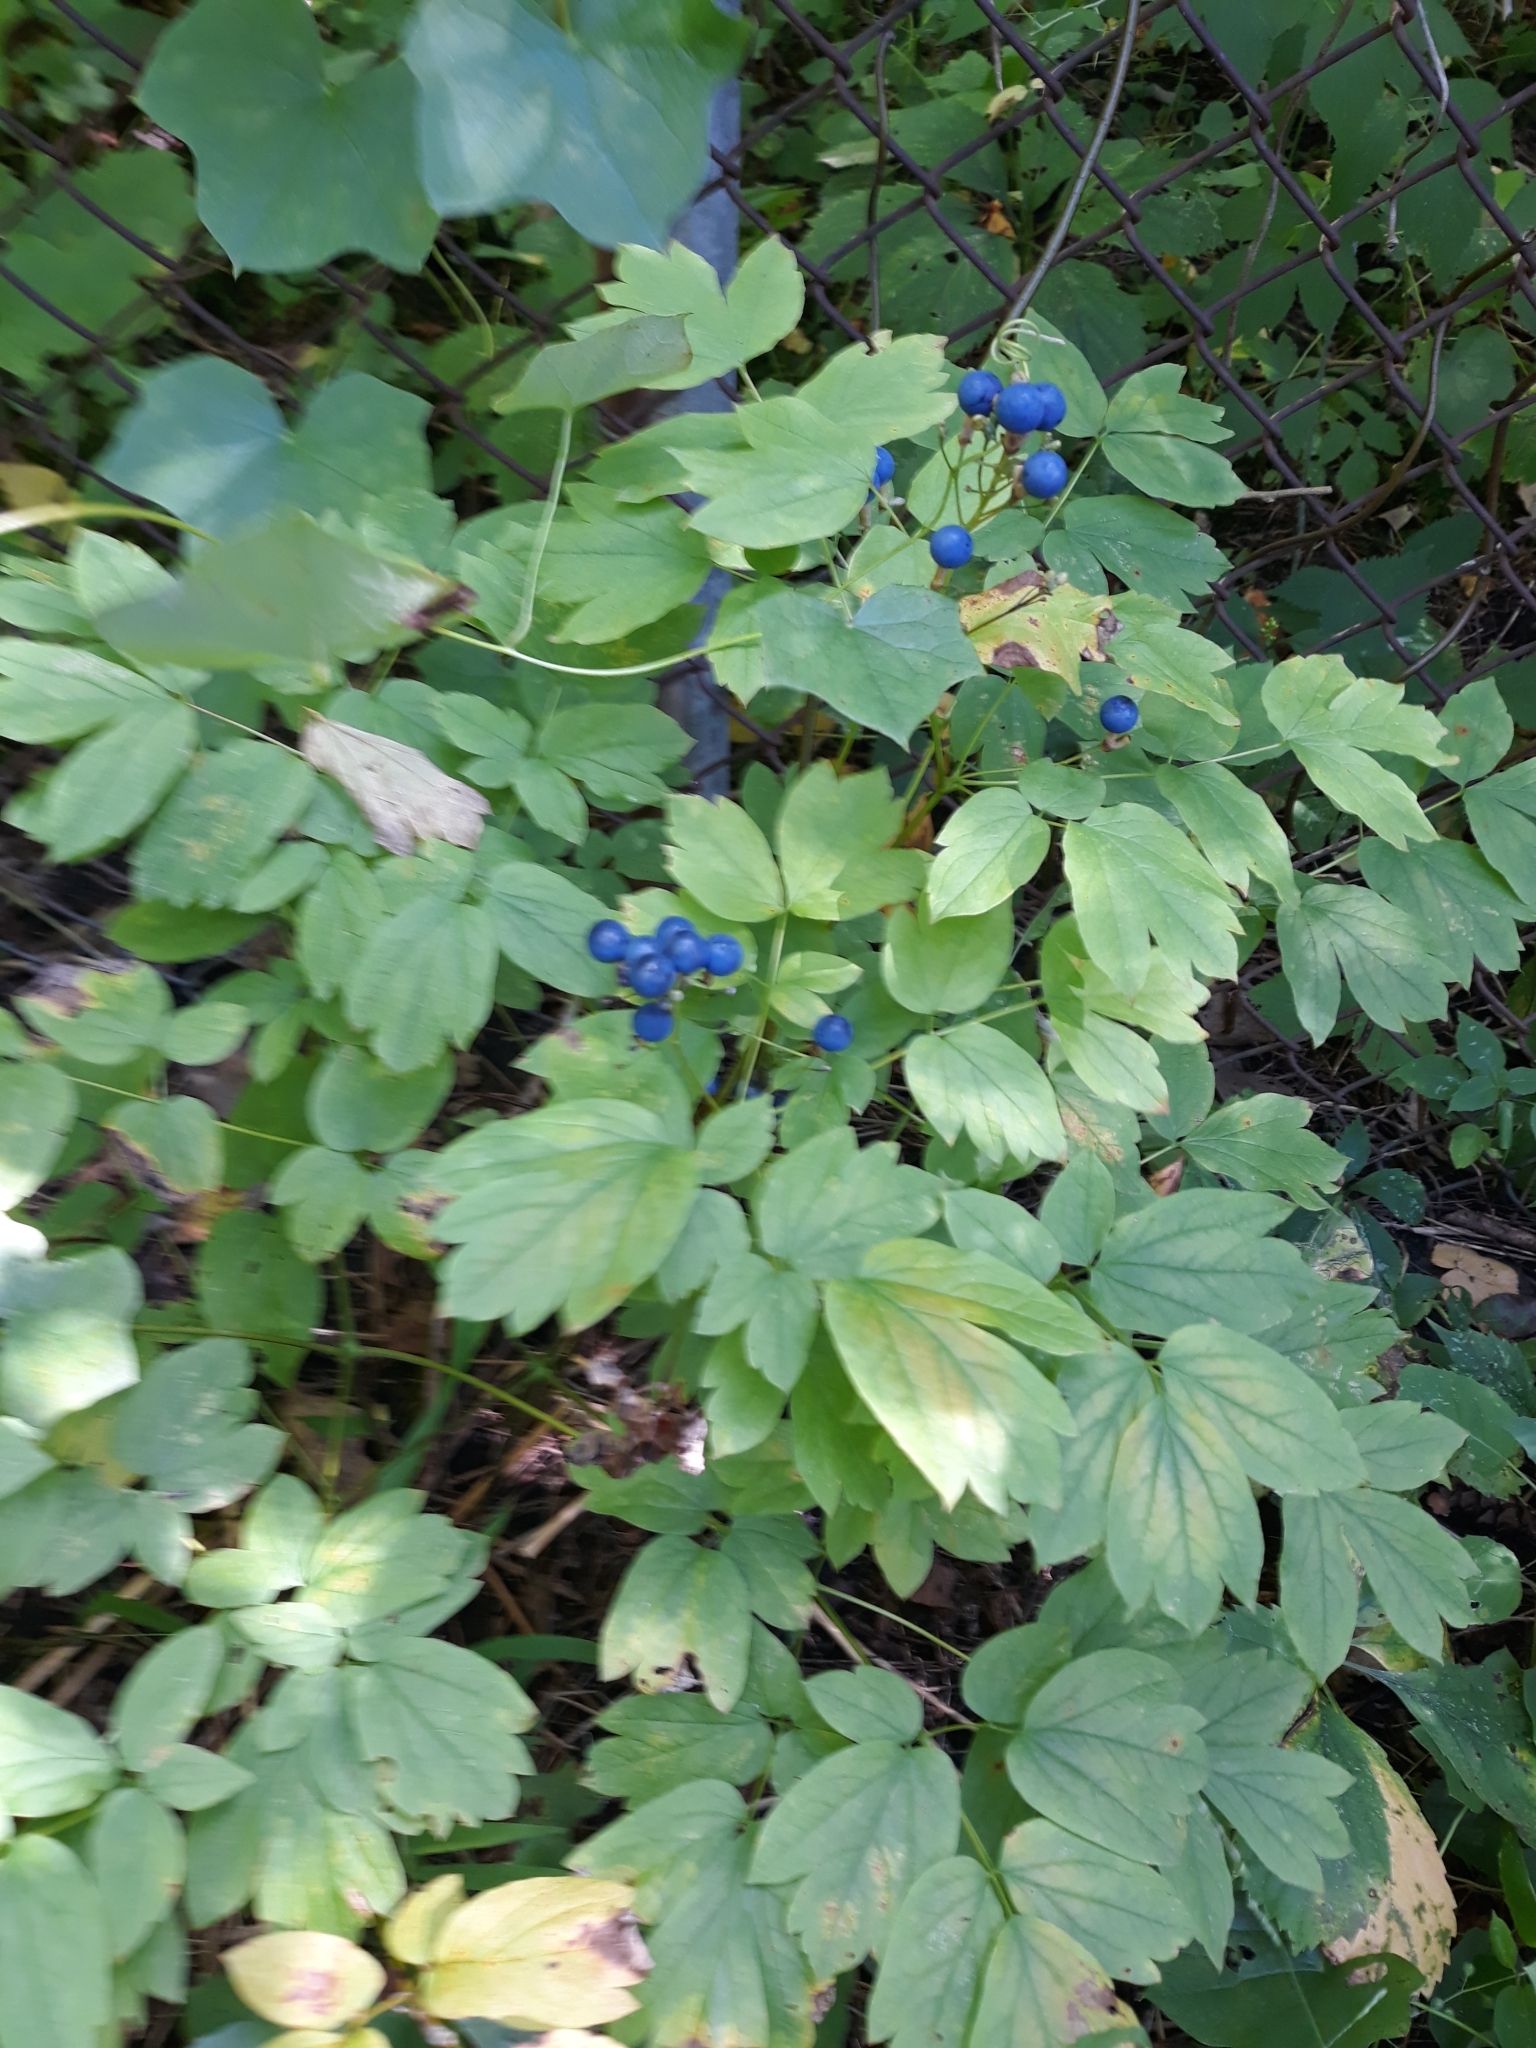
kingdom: Plantae
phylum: Tracheophyta
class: Magnoliopsida
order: Ranunculales
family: Berberidaceae
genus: Caulophyllum
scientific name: Caulophyllum thalictroides
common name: Blue cohosh
